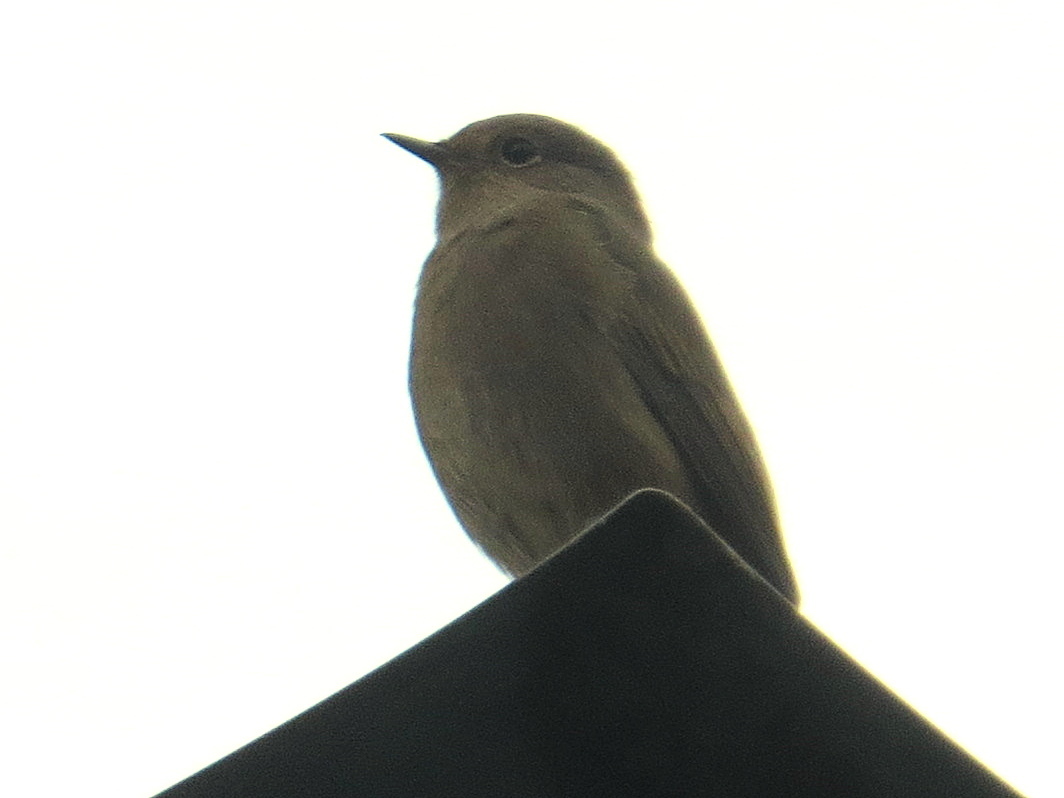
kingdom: Animalia
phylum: Chordata
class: Aves
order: Passeriformes
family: Muscicapidae
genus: Phoenicurus
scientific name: Phoenicurus ochruros
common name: Black redstart
